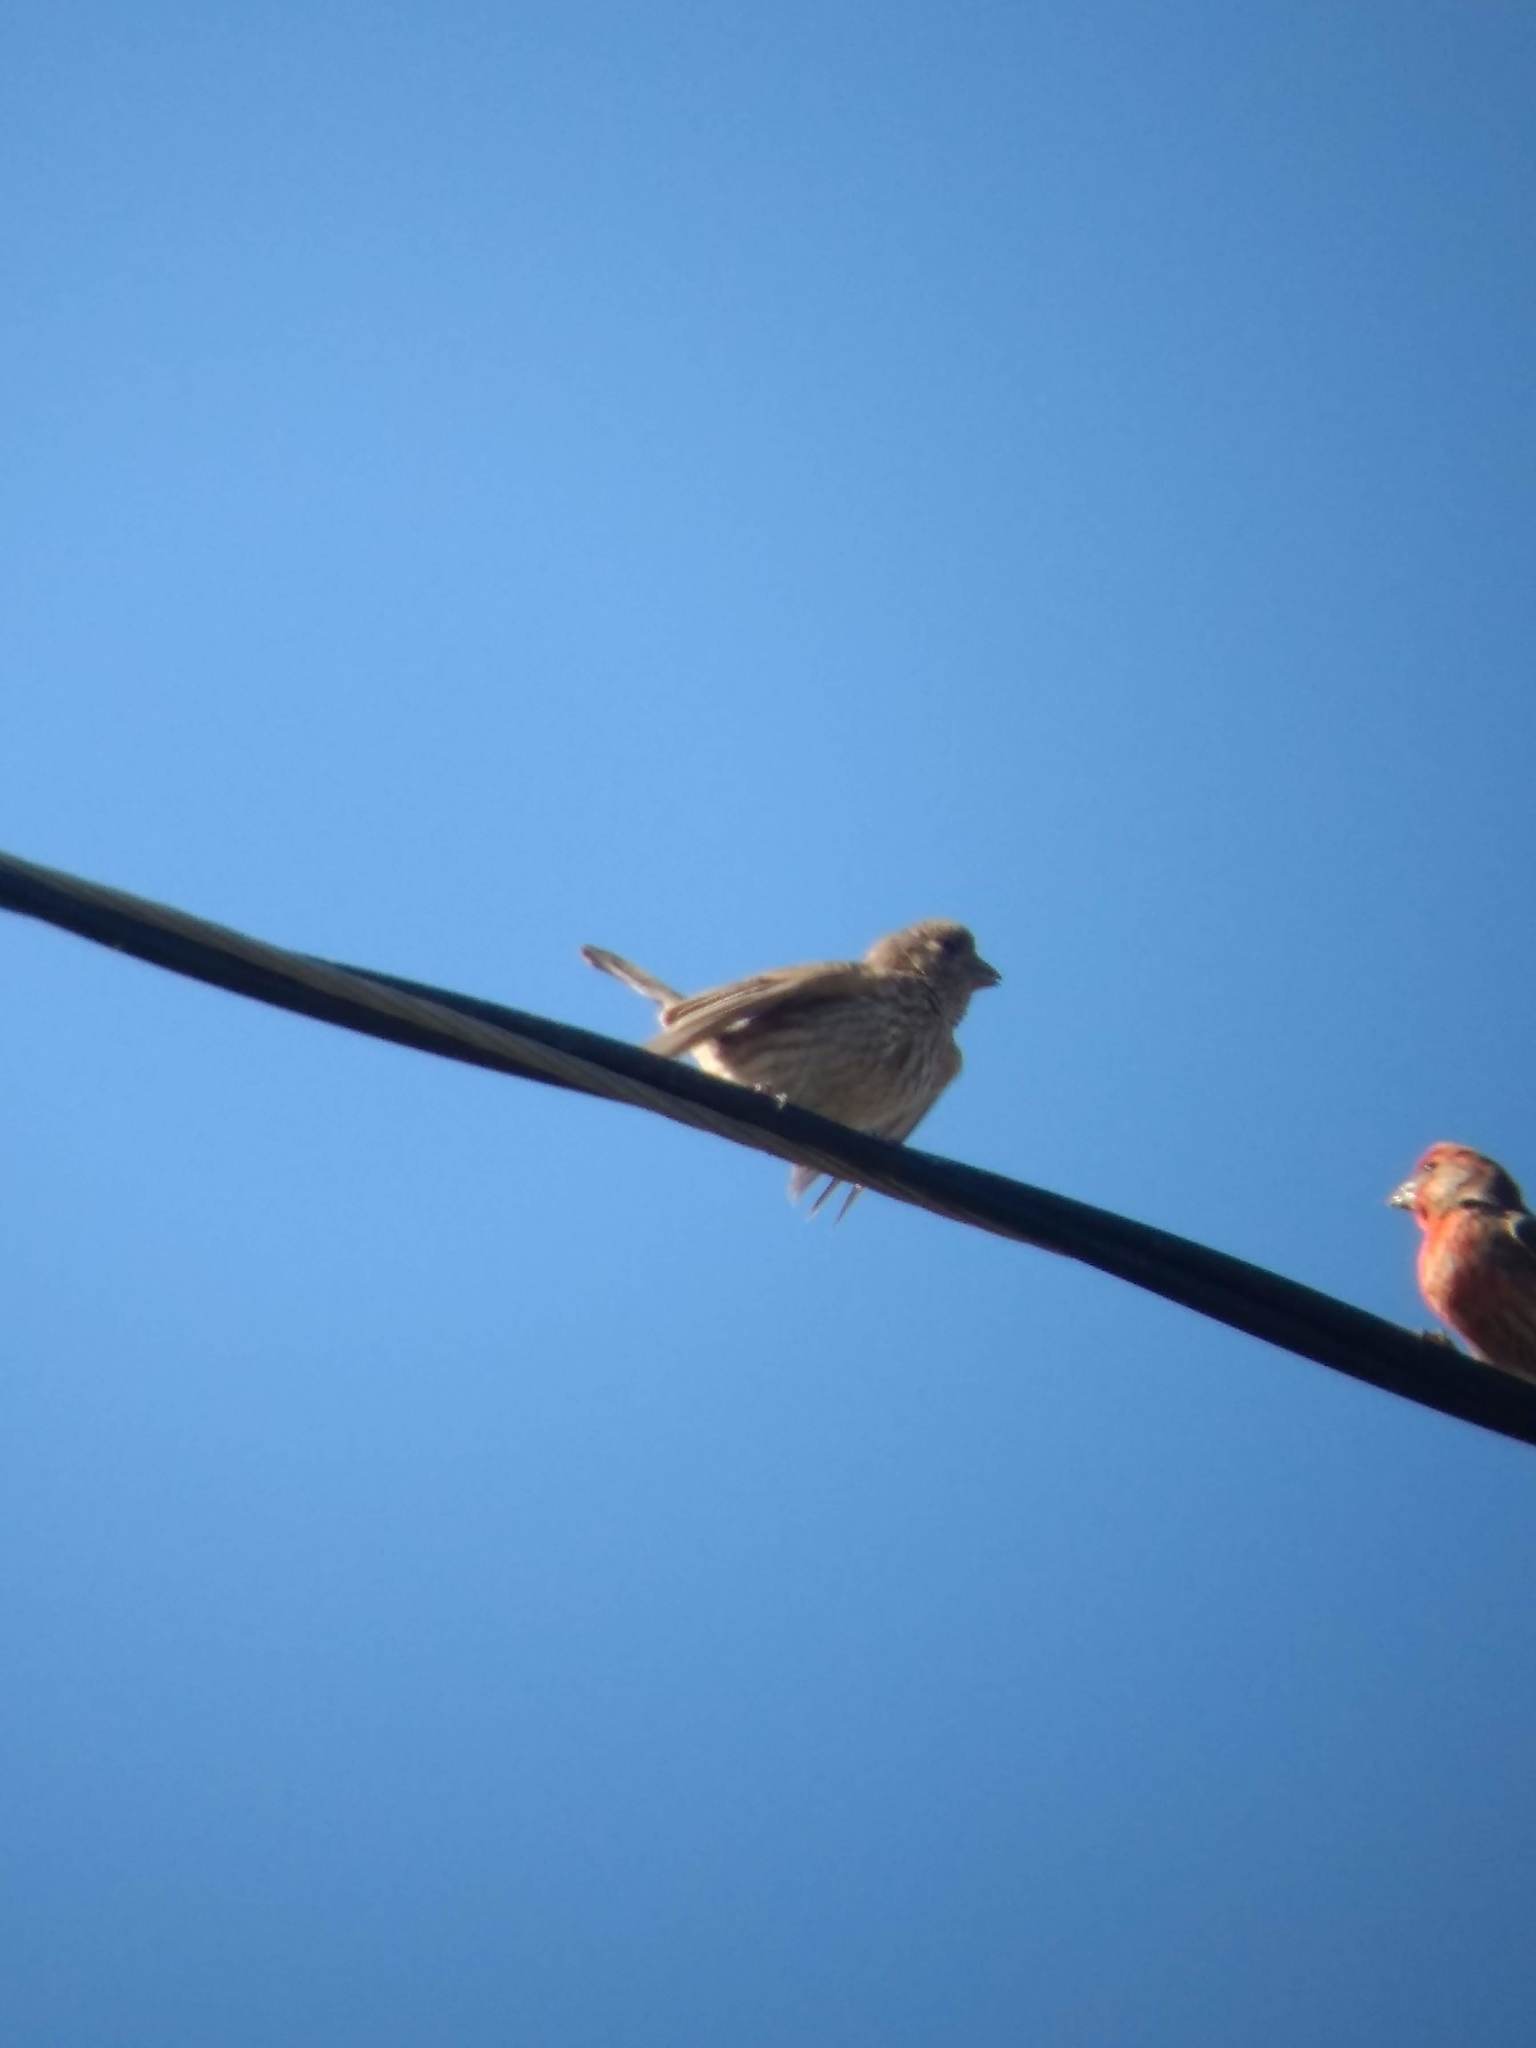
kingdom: Animalia
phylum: Chordata
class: Aves
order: Passeriformes
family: Fringillidae
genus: Haemorhous
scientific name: Haemorhous mexicanus
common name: House finch
